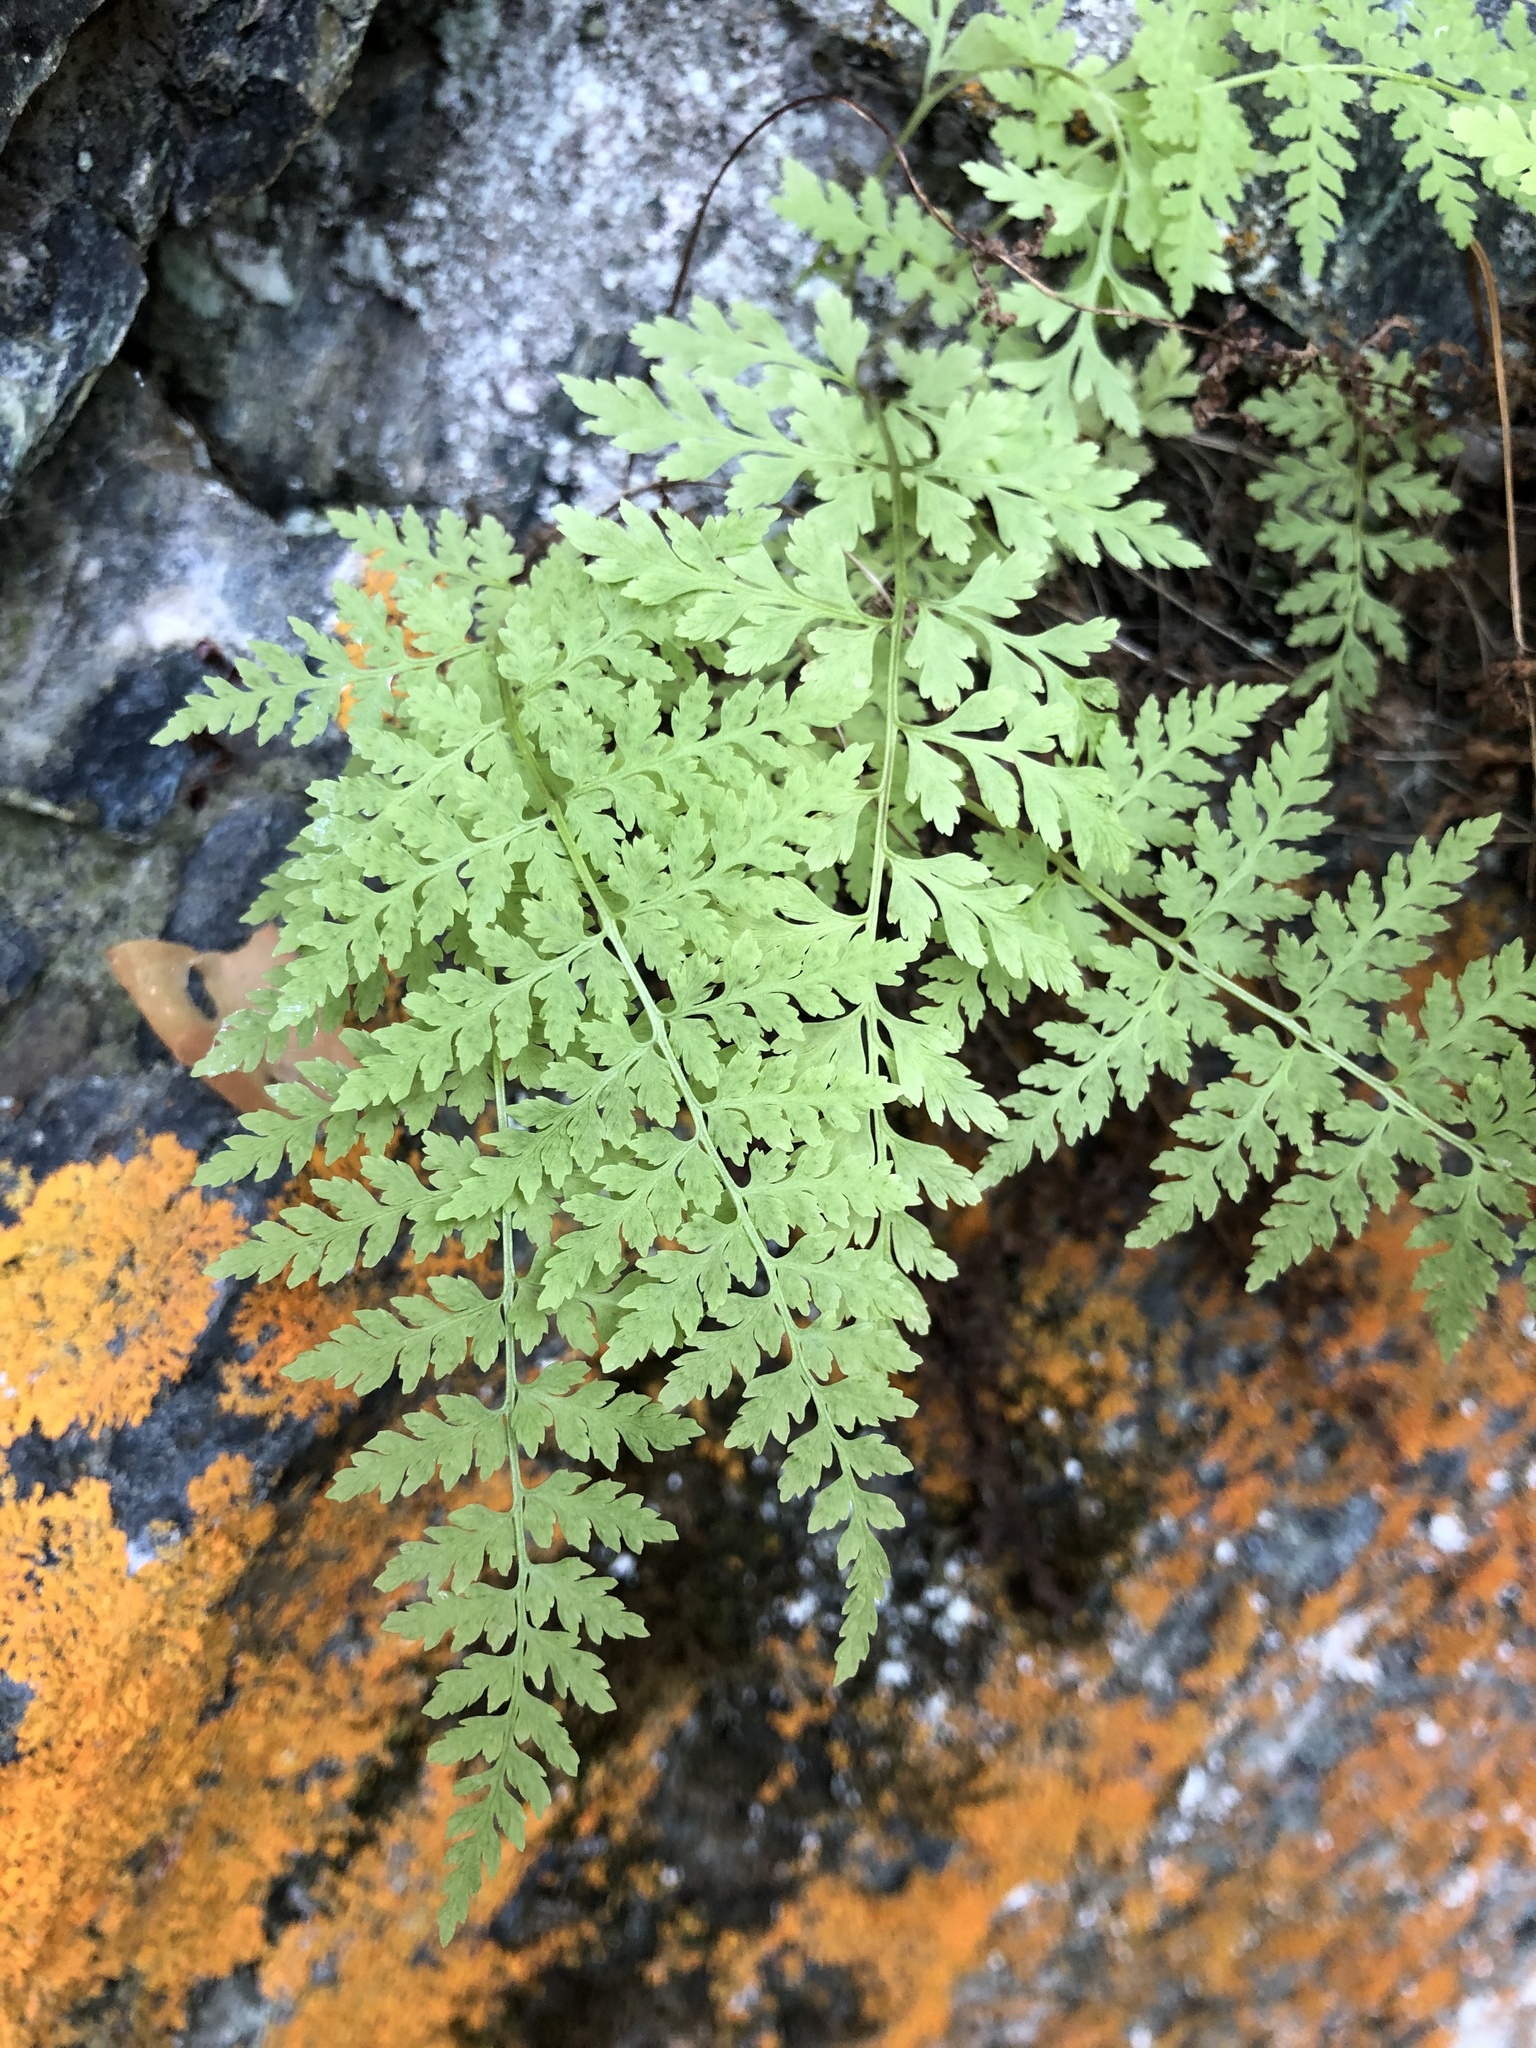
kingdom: Plantae
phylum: Tracheophyta
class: Polypodiopsida
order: Polypodiales
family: Cystopteridaceae
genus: Cystopteris
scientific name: Cystopteris fragilis
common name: Brittle bladder fern
